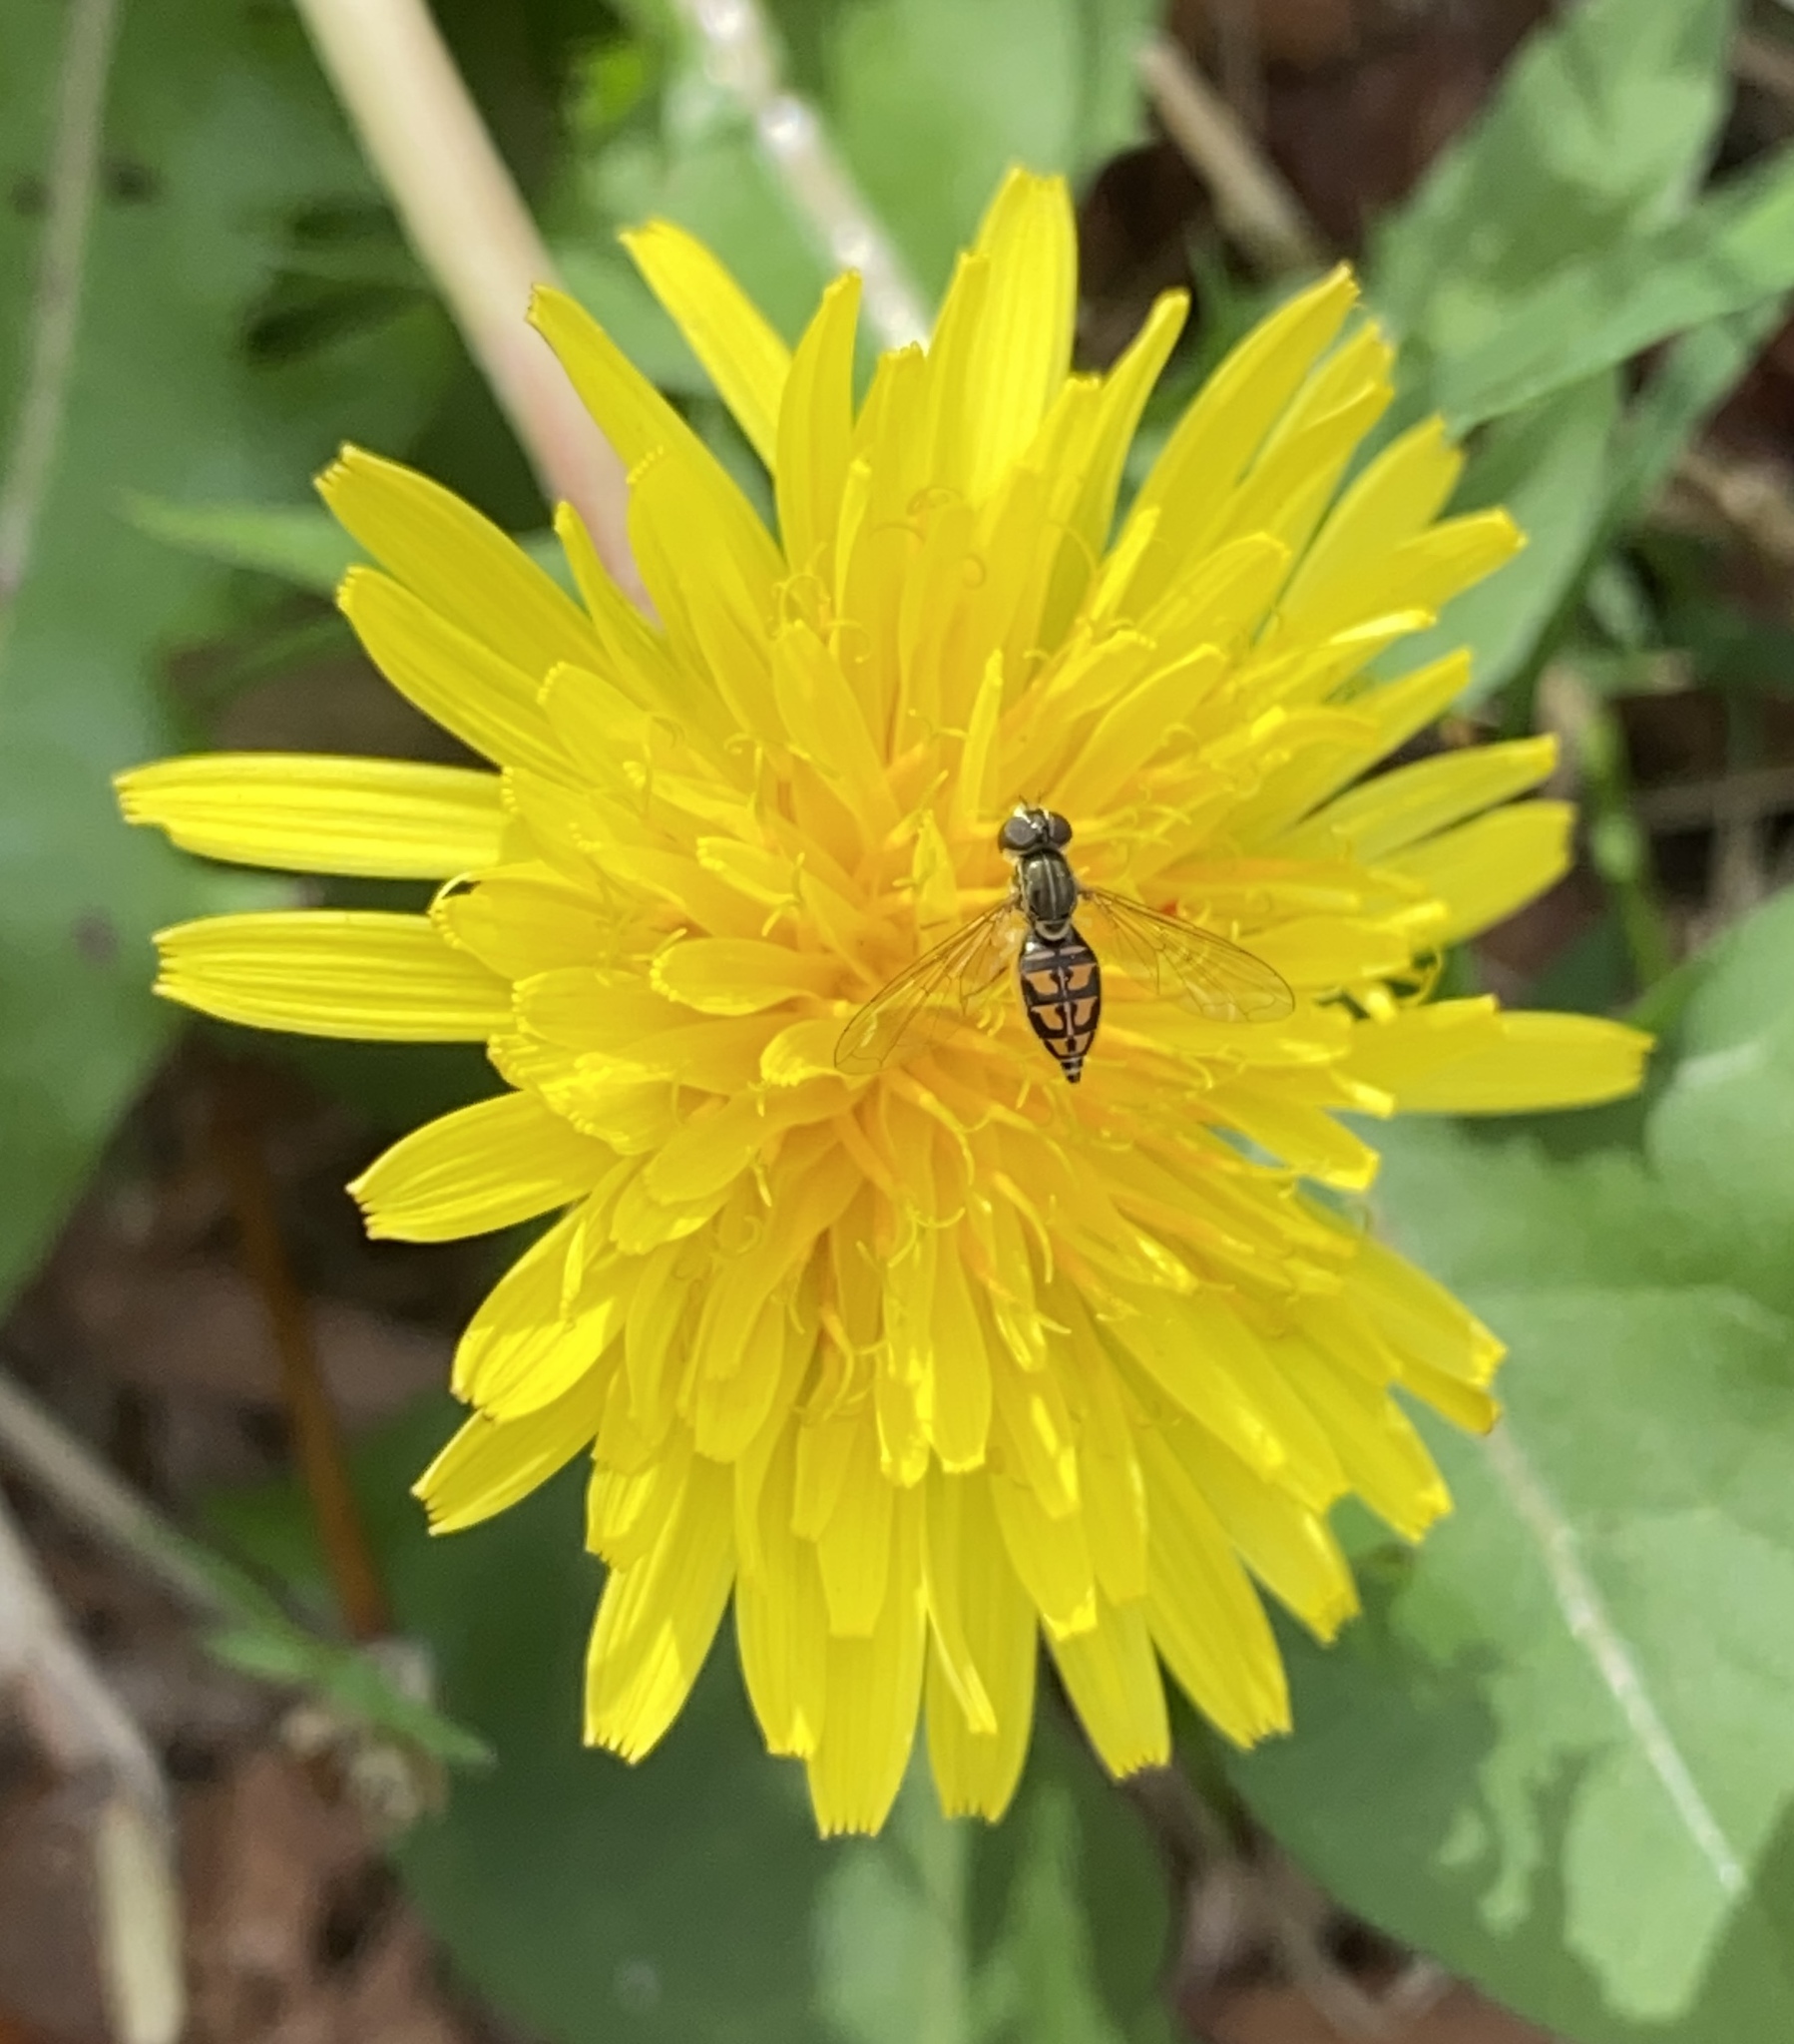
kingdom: Animalia
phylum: Arthropoda
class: Insecta
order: Diptera
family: Syrphidae
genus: Toxomerus
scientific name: Toxomerus marginatus
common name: Syrphid fly
